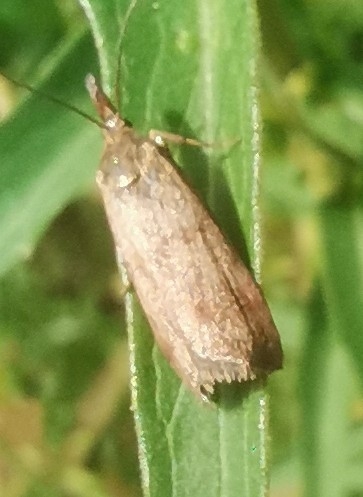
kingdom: Animalia
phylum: Arthropoda
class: Insecta
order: Lepidoptera
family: Pyralidae
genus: Hypochalcia
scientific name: Hypochalcia ahenella
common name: Dingy knot-horn
